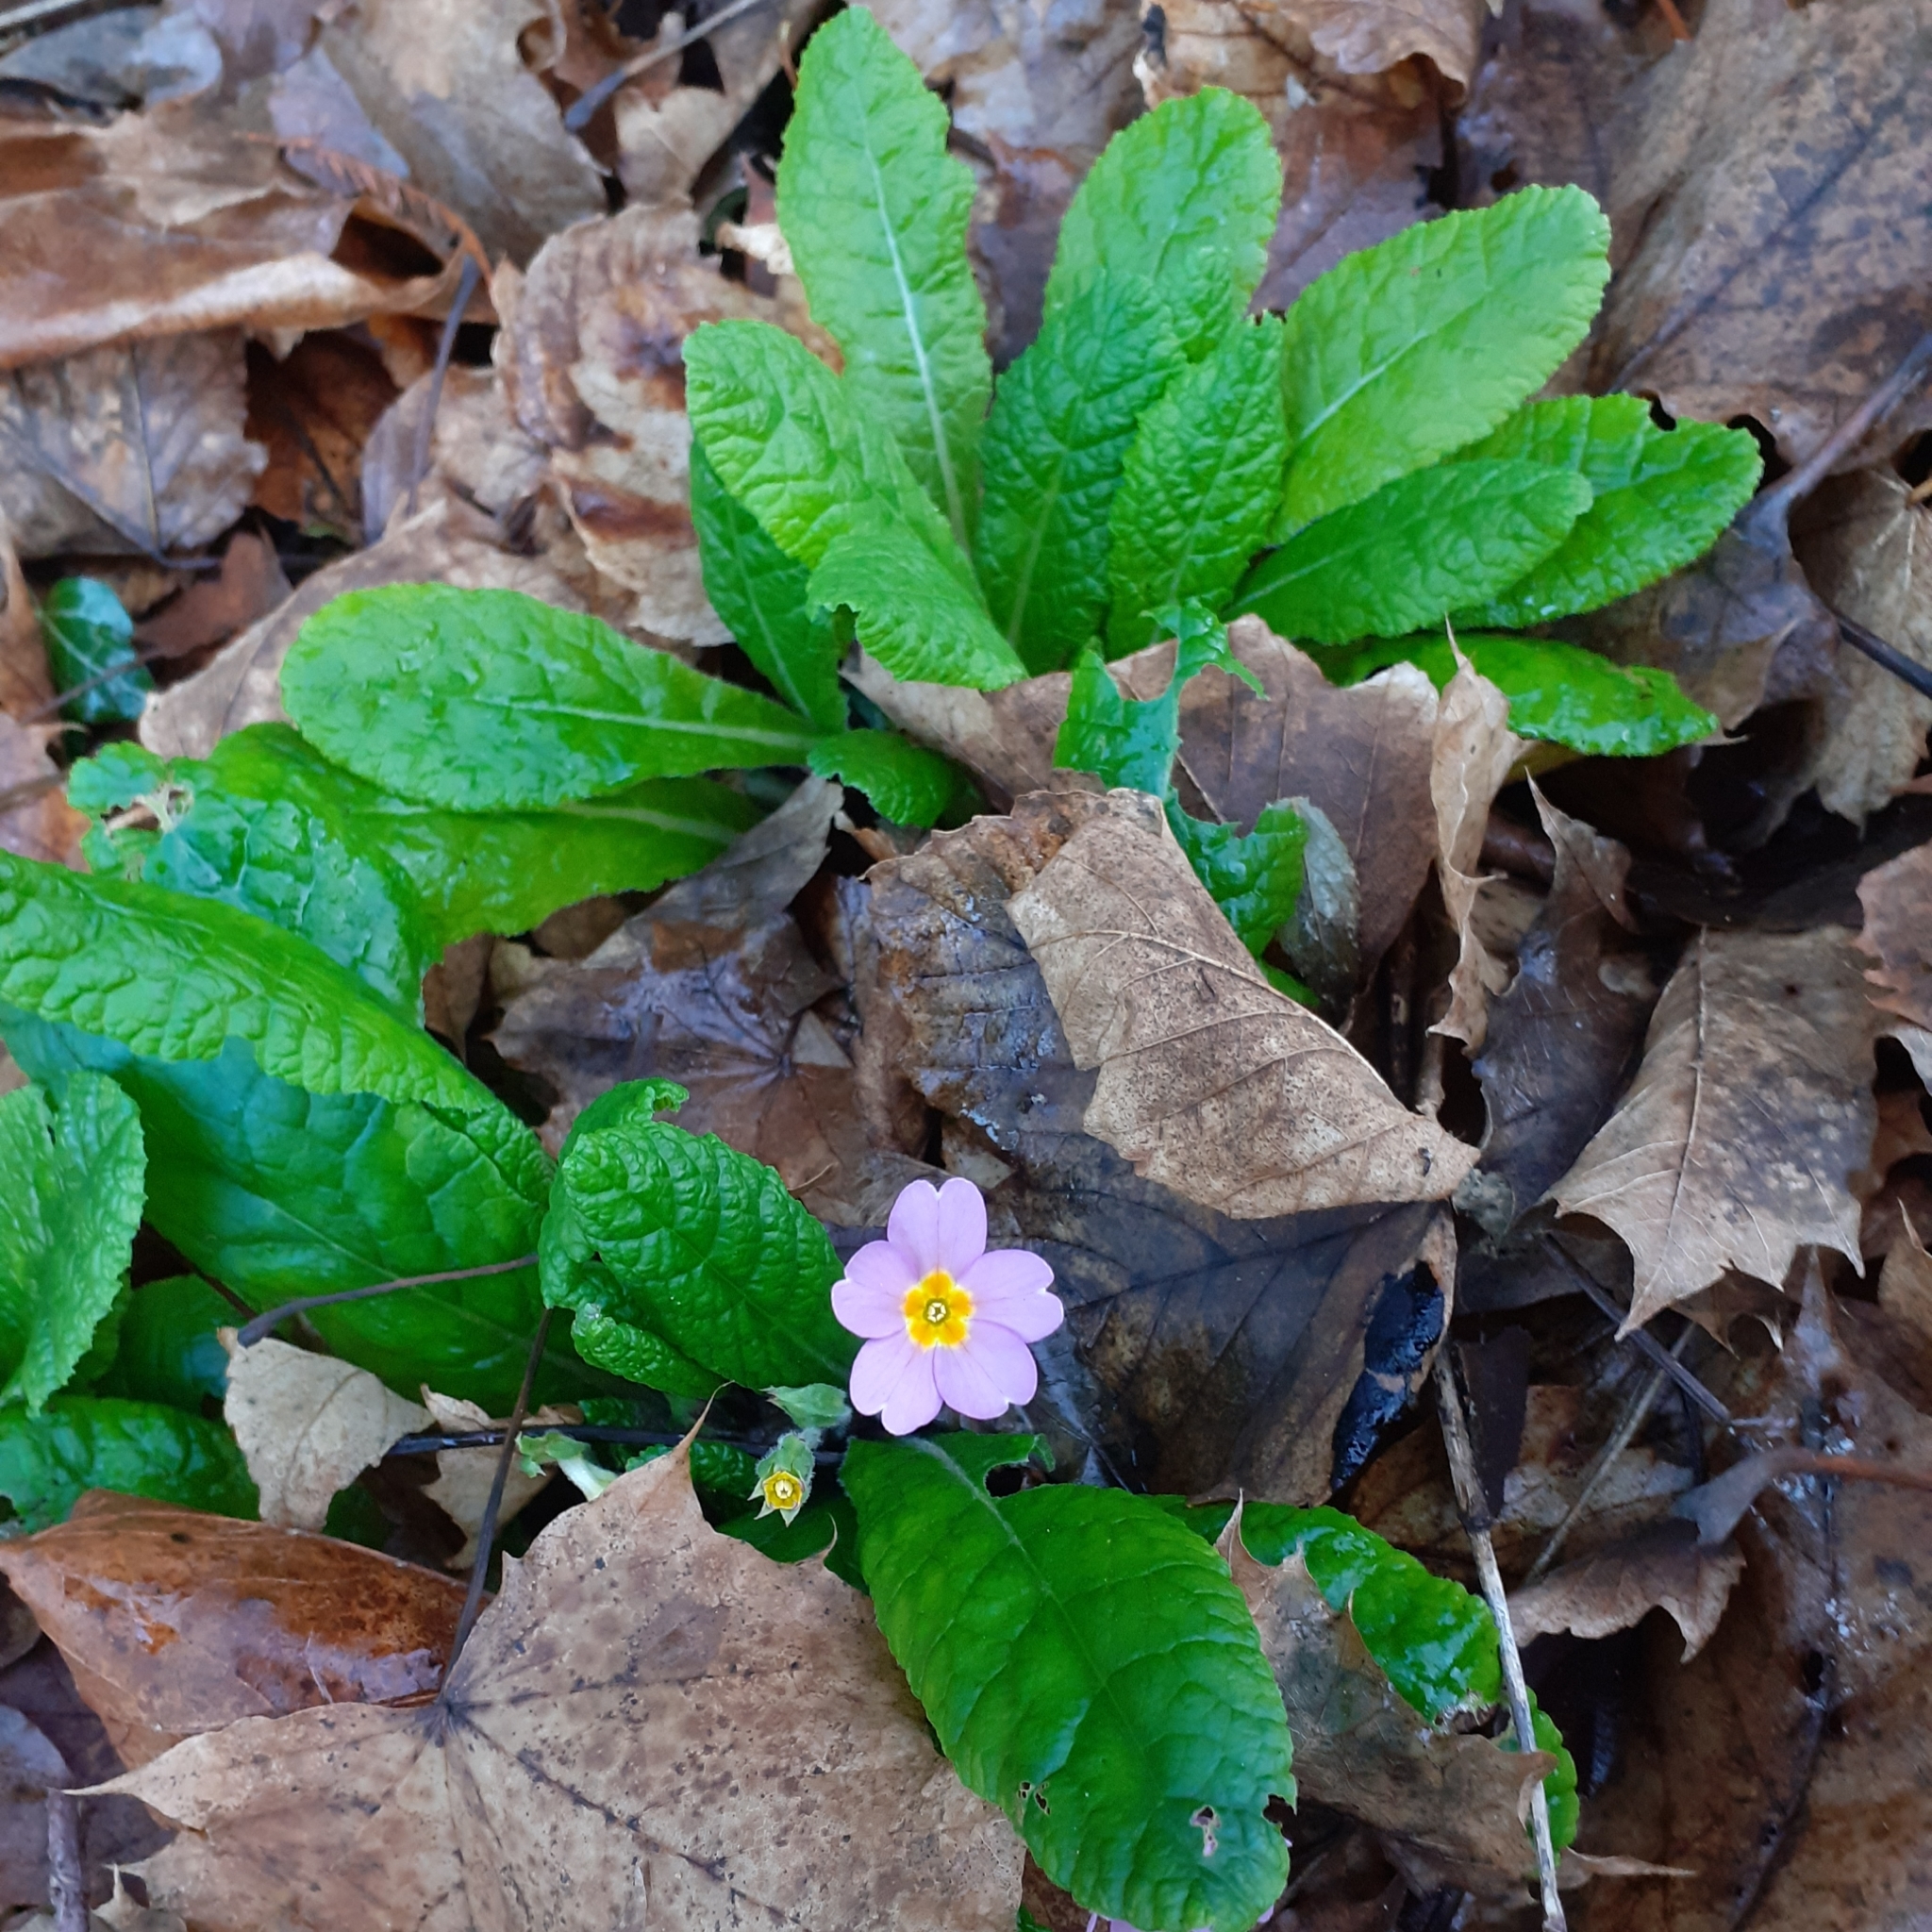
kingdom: Plantae
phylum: Tracheophyta
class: Magnoliopsida
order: Ericales
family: Primulaceae
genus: Primula
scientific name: Primula vulgaris
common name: Primrose
